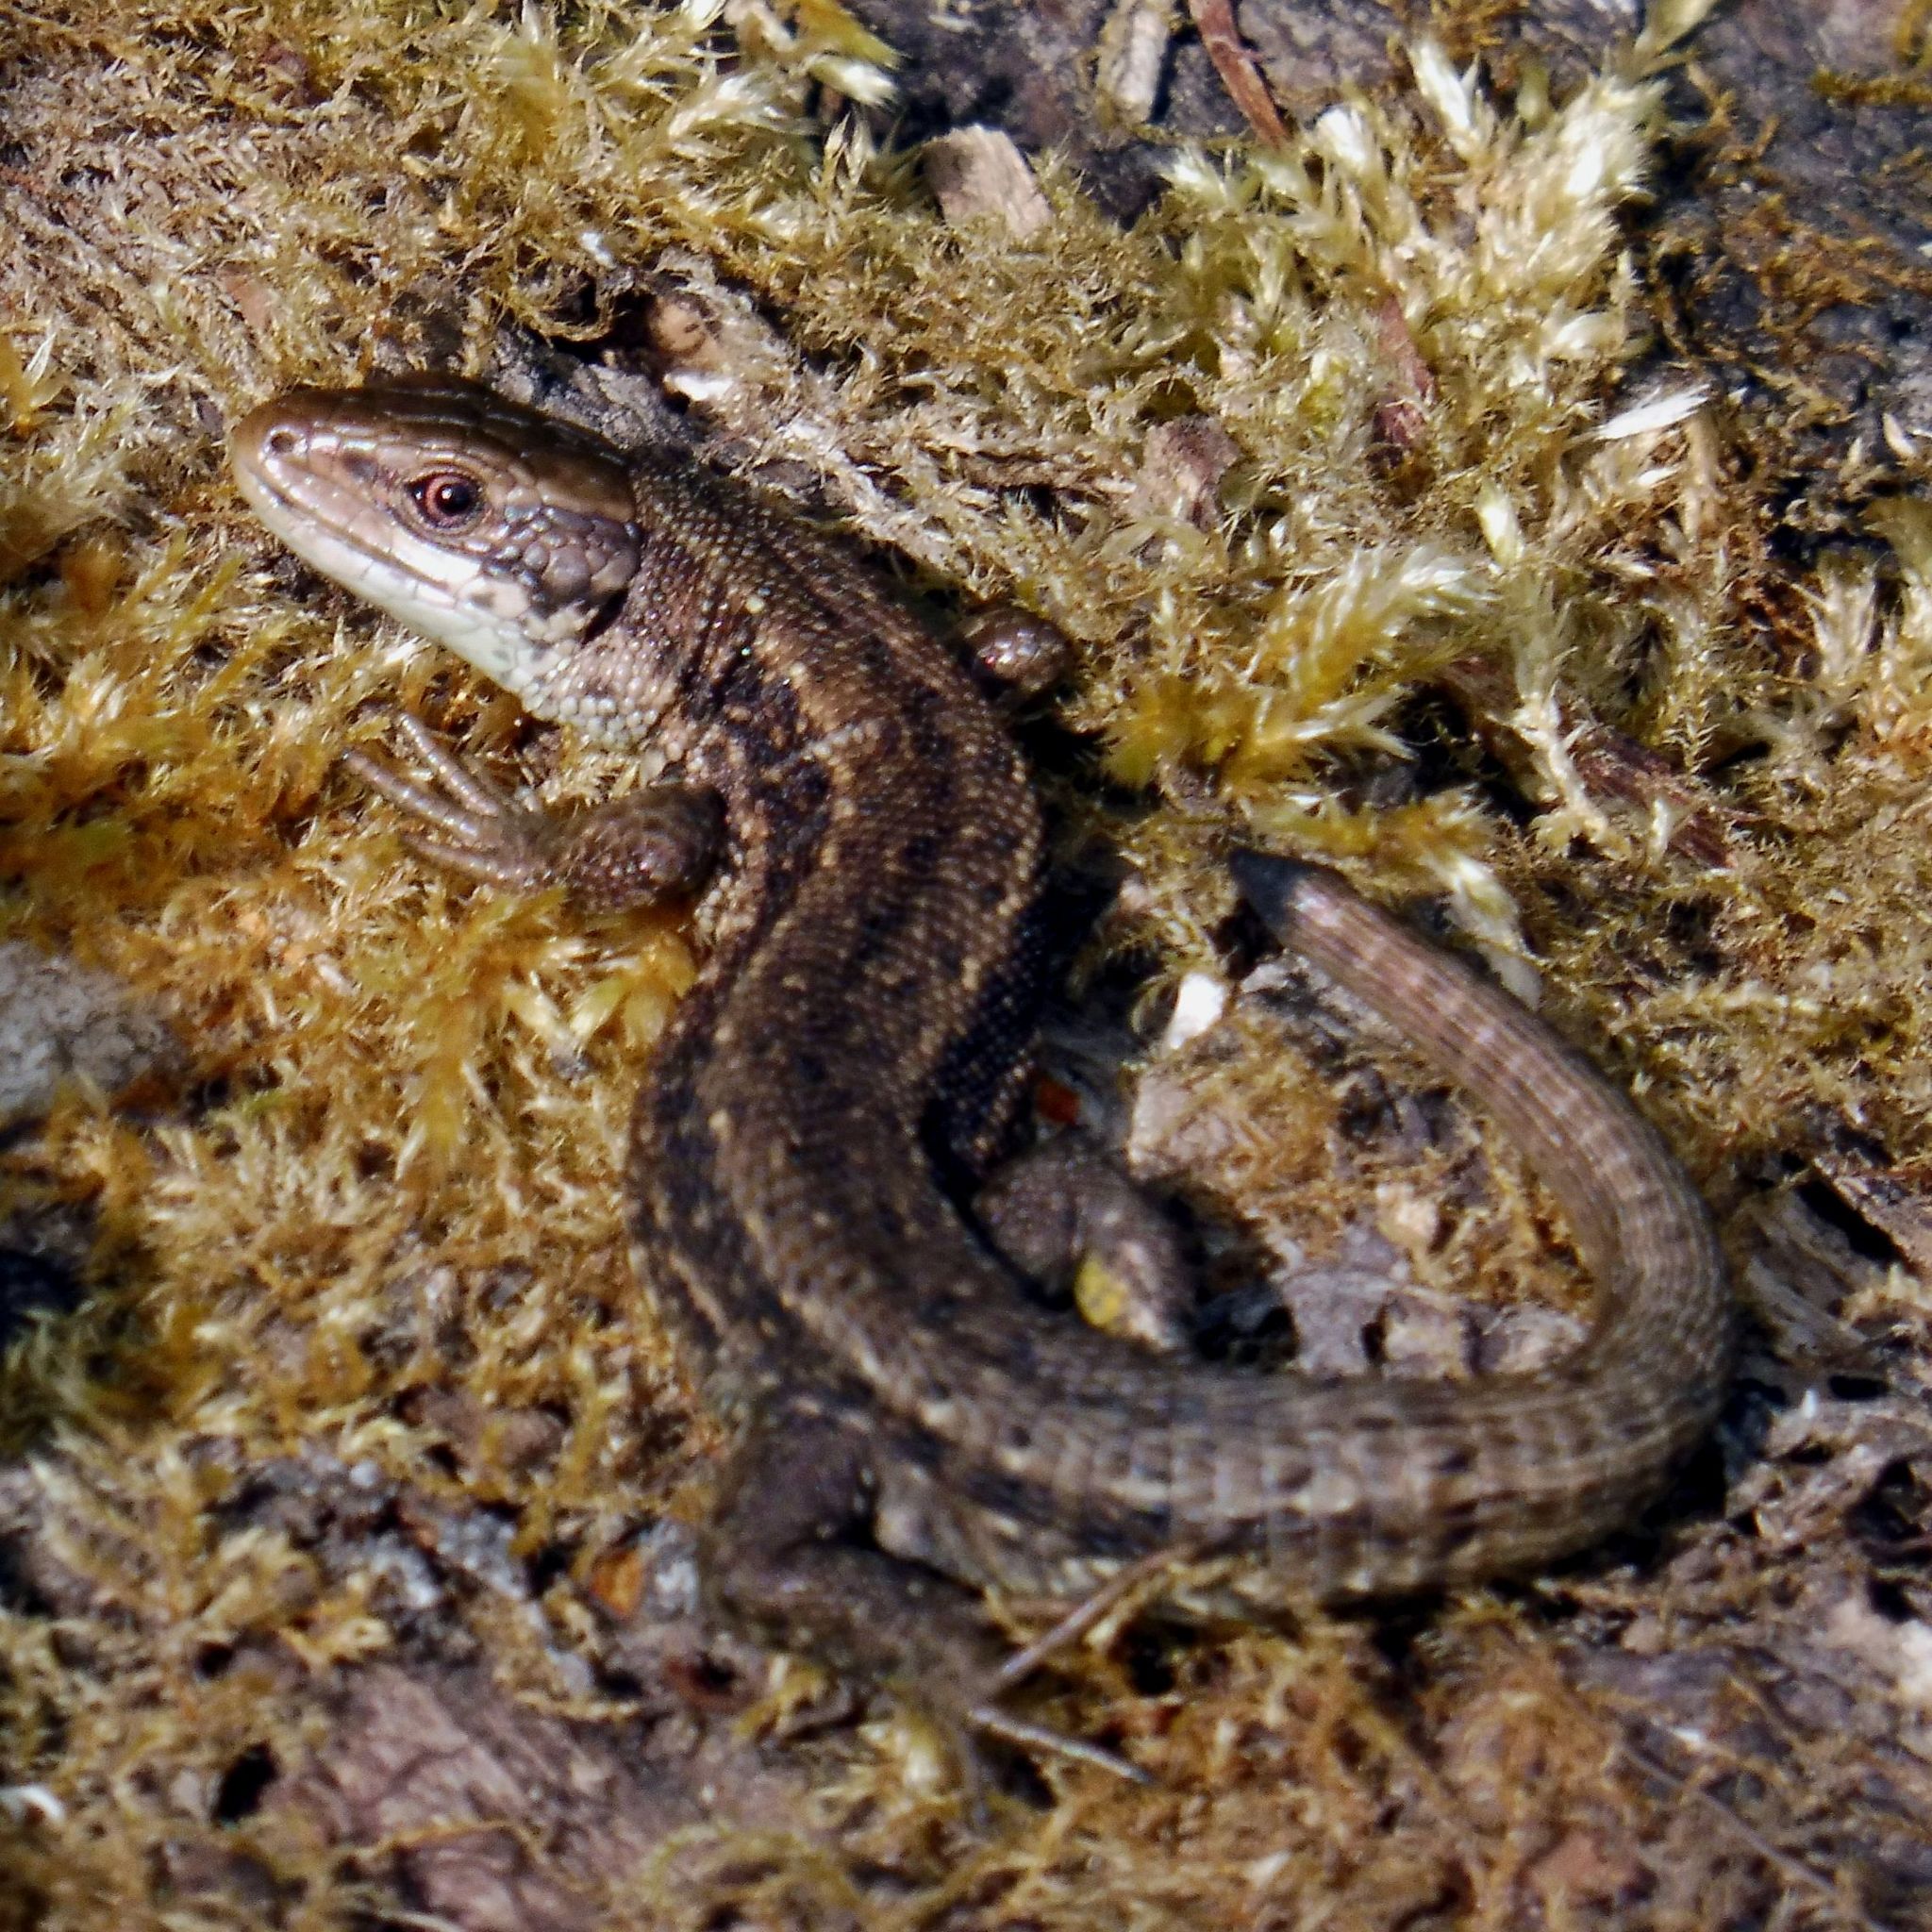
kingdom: Animalia
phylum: Chordata
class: Squamata
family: Lacertidae
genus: Zootoca
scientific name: Zootoca vivipara
